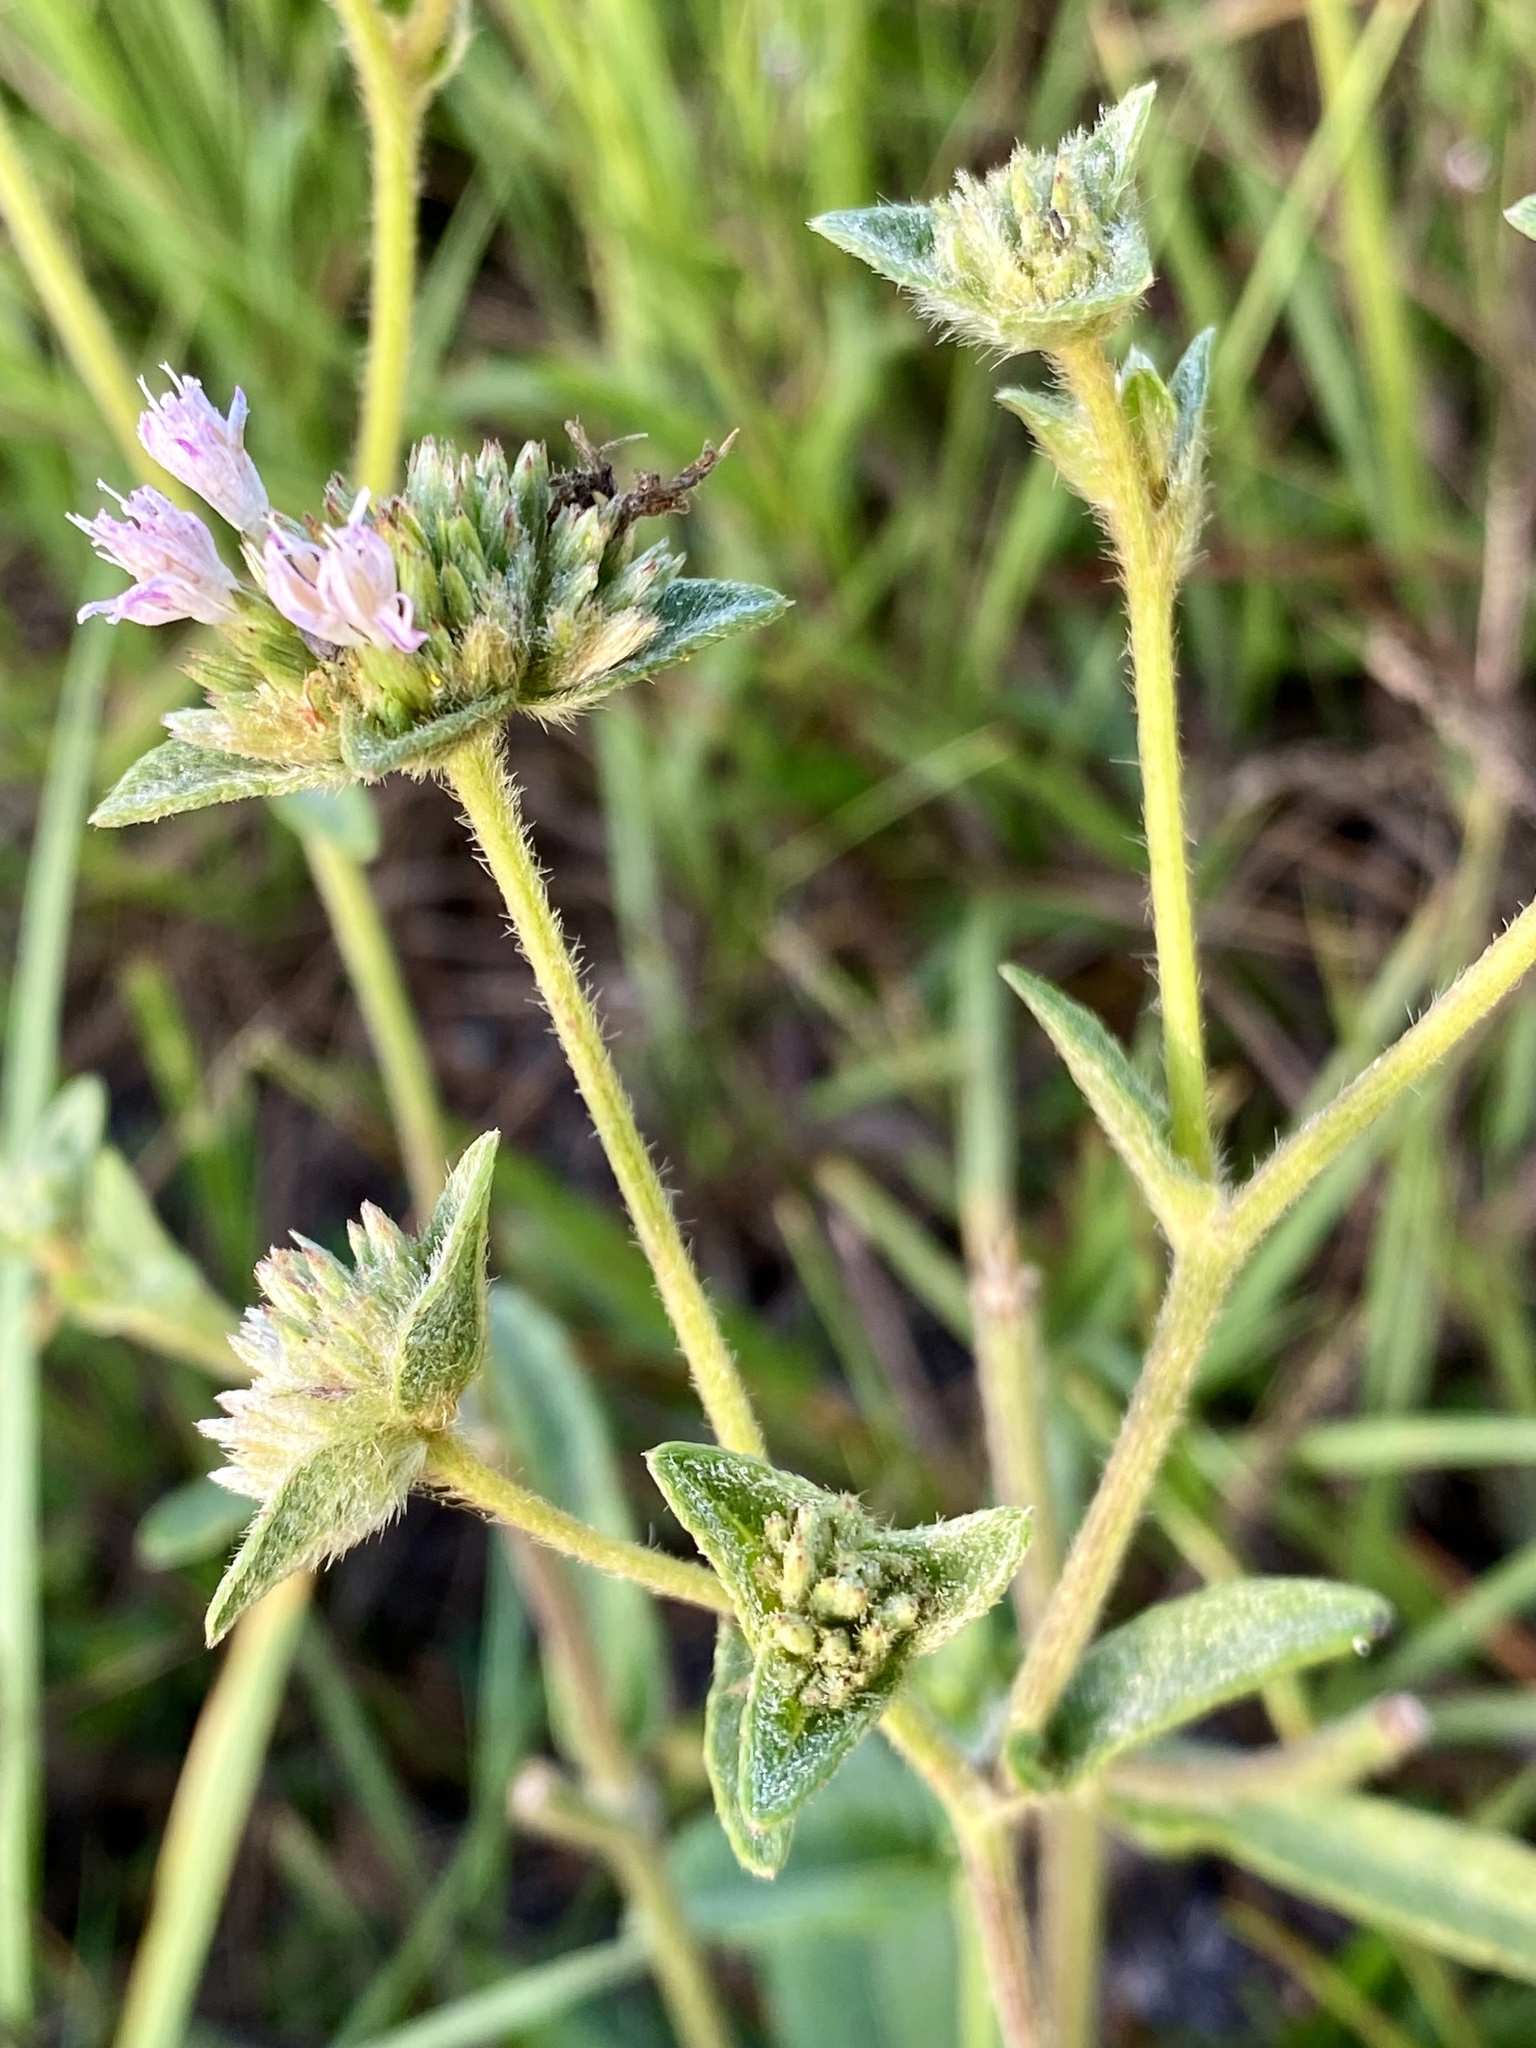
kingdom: Plantae
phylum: Tracheophyta
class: Magnoliopsida
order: Asterales
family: Asteraceae
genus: Elephantopus
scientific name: Elephantopus elatus
